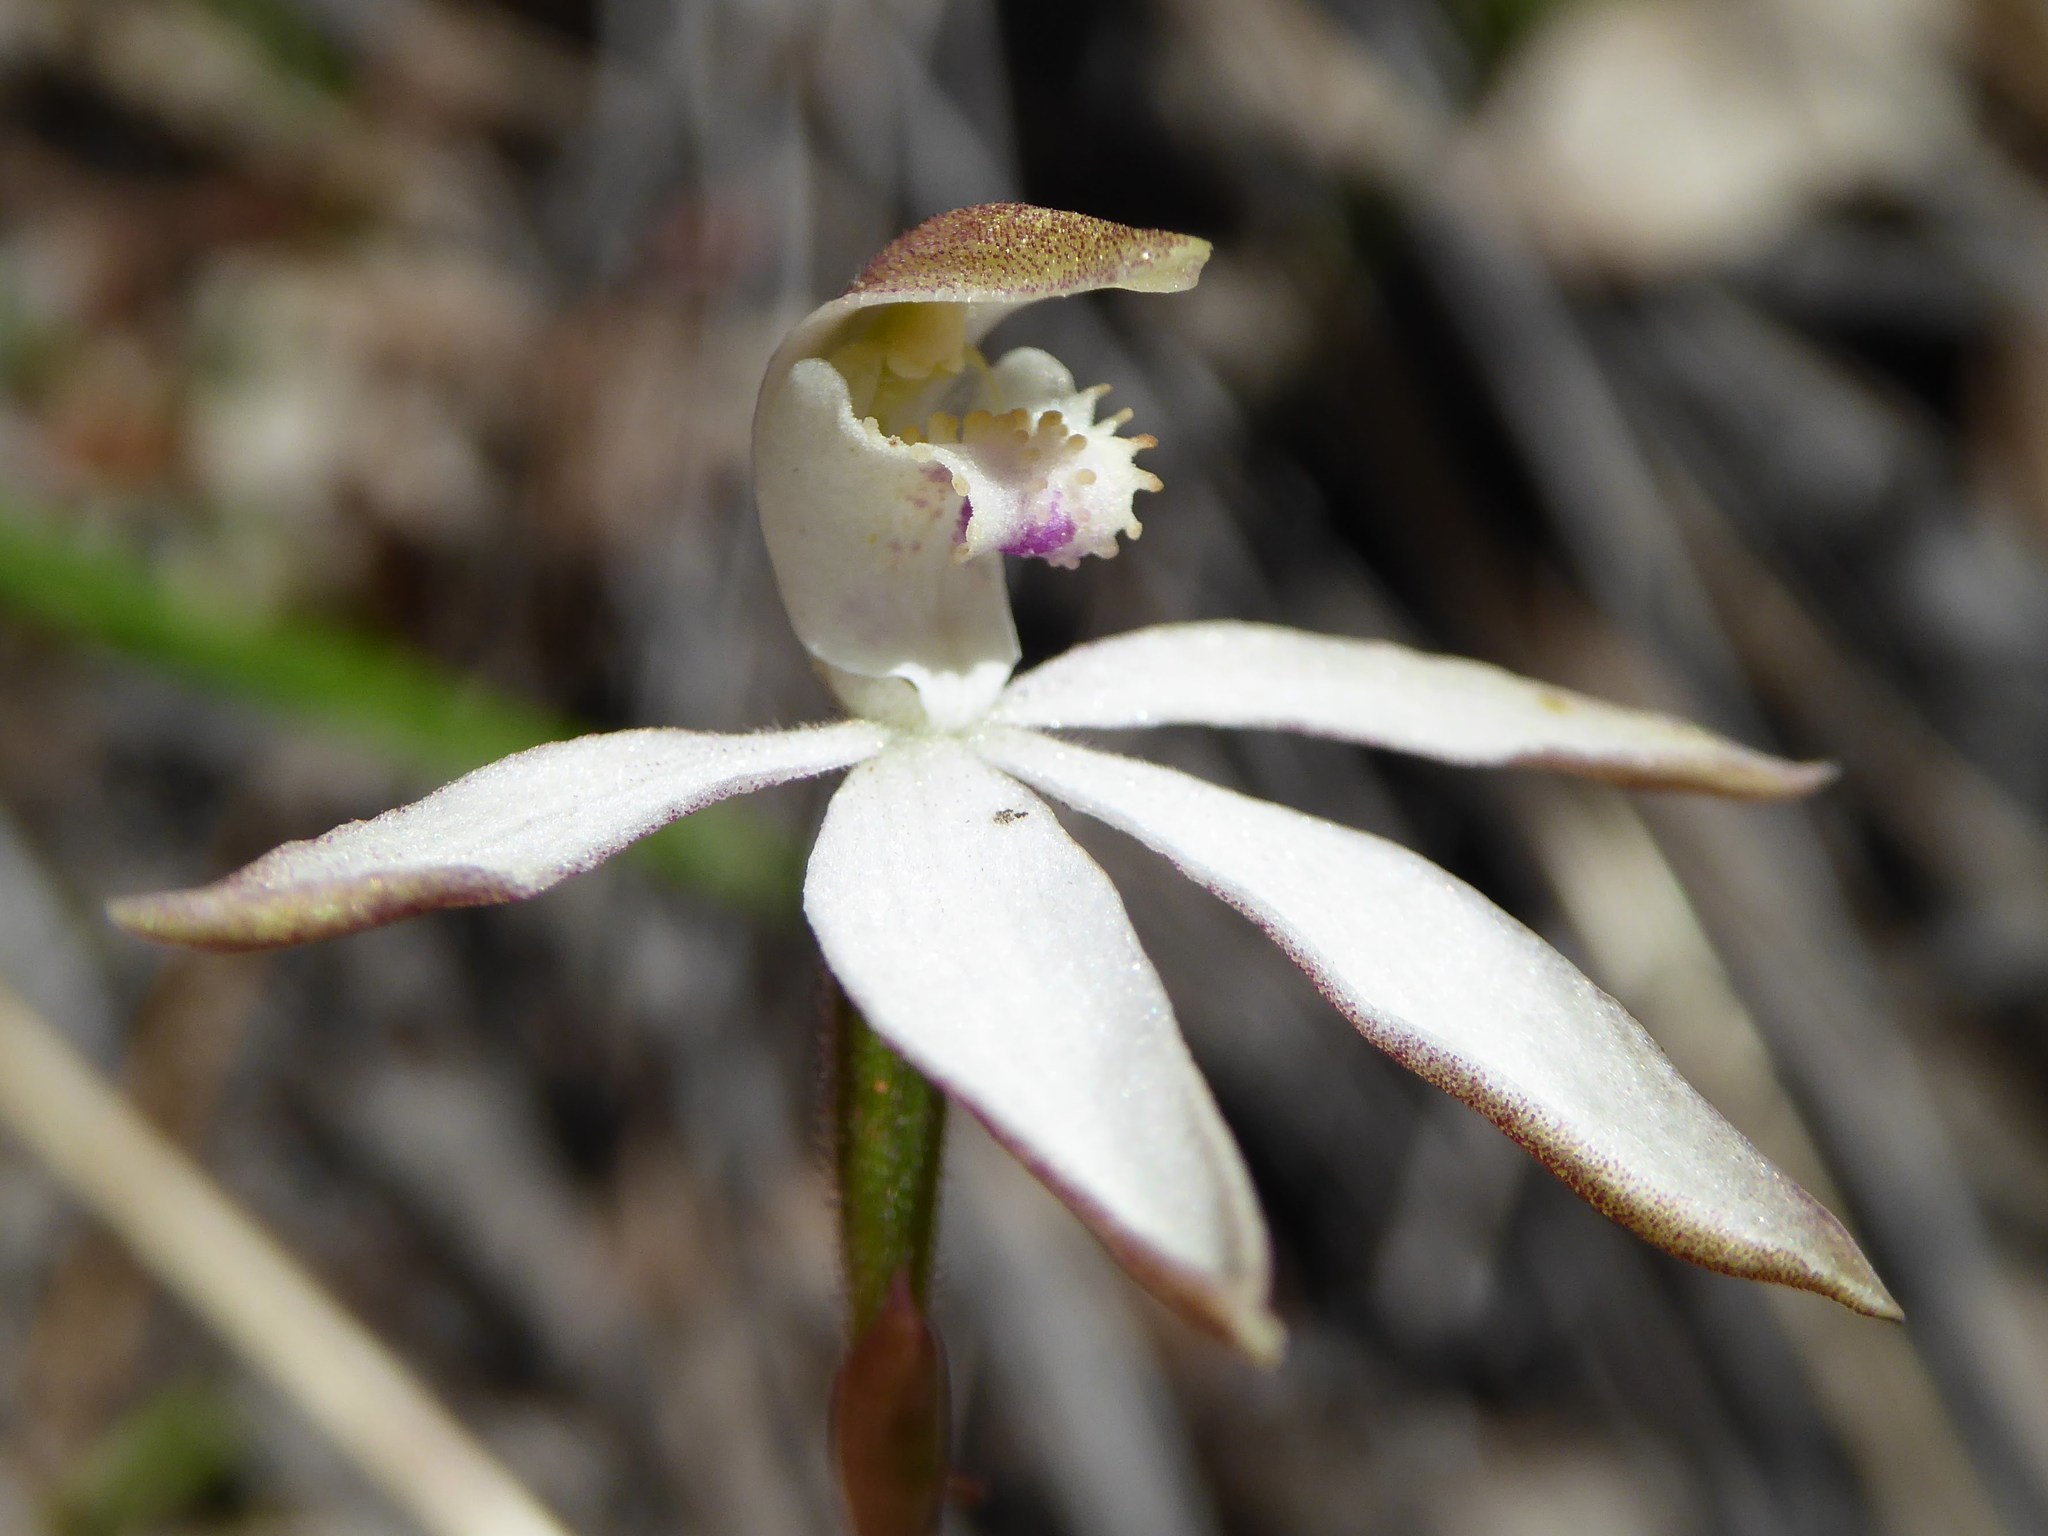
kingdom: Plantae
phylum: Tracheophyta
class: Liliopsida
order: Asparagales
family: Orchidaceae
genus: Caladenia
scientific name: Caladenia moschata
